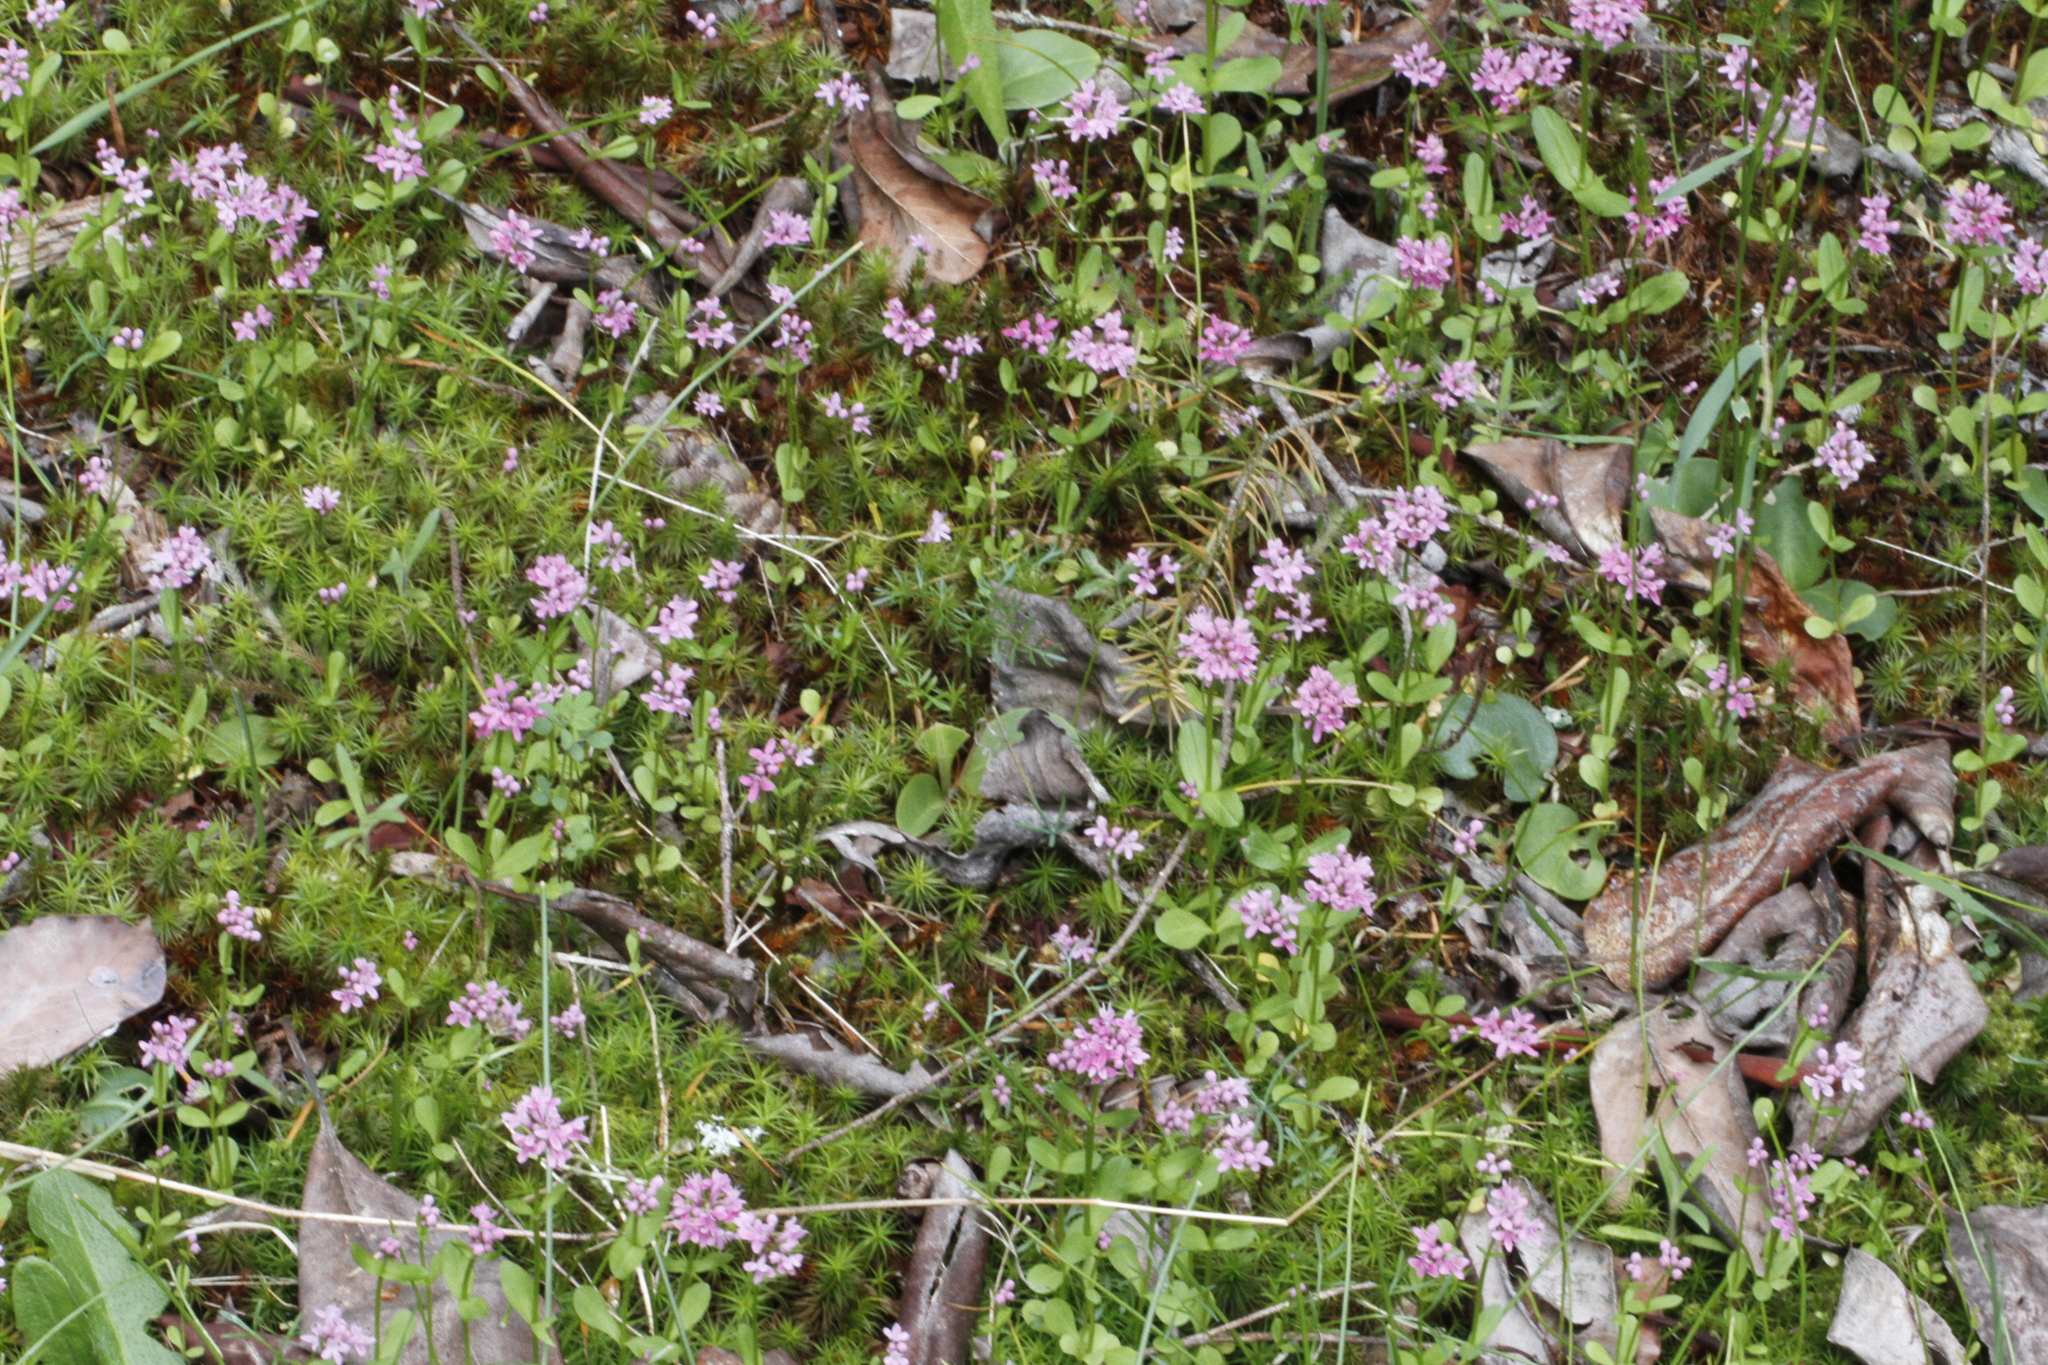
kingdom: Plantae
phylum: Tracheophyta
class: Magnoliopsida
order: Dipsacales
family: Caprifoliaceae
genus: Plectritis
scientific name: Plectritis congesta
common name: Pink plectritis
